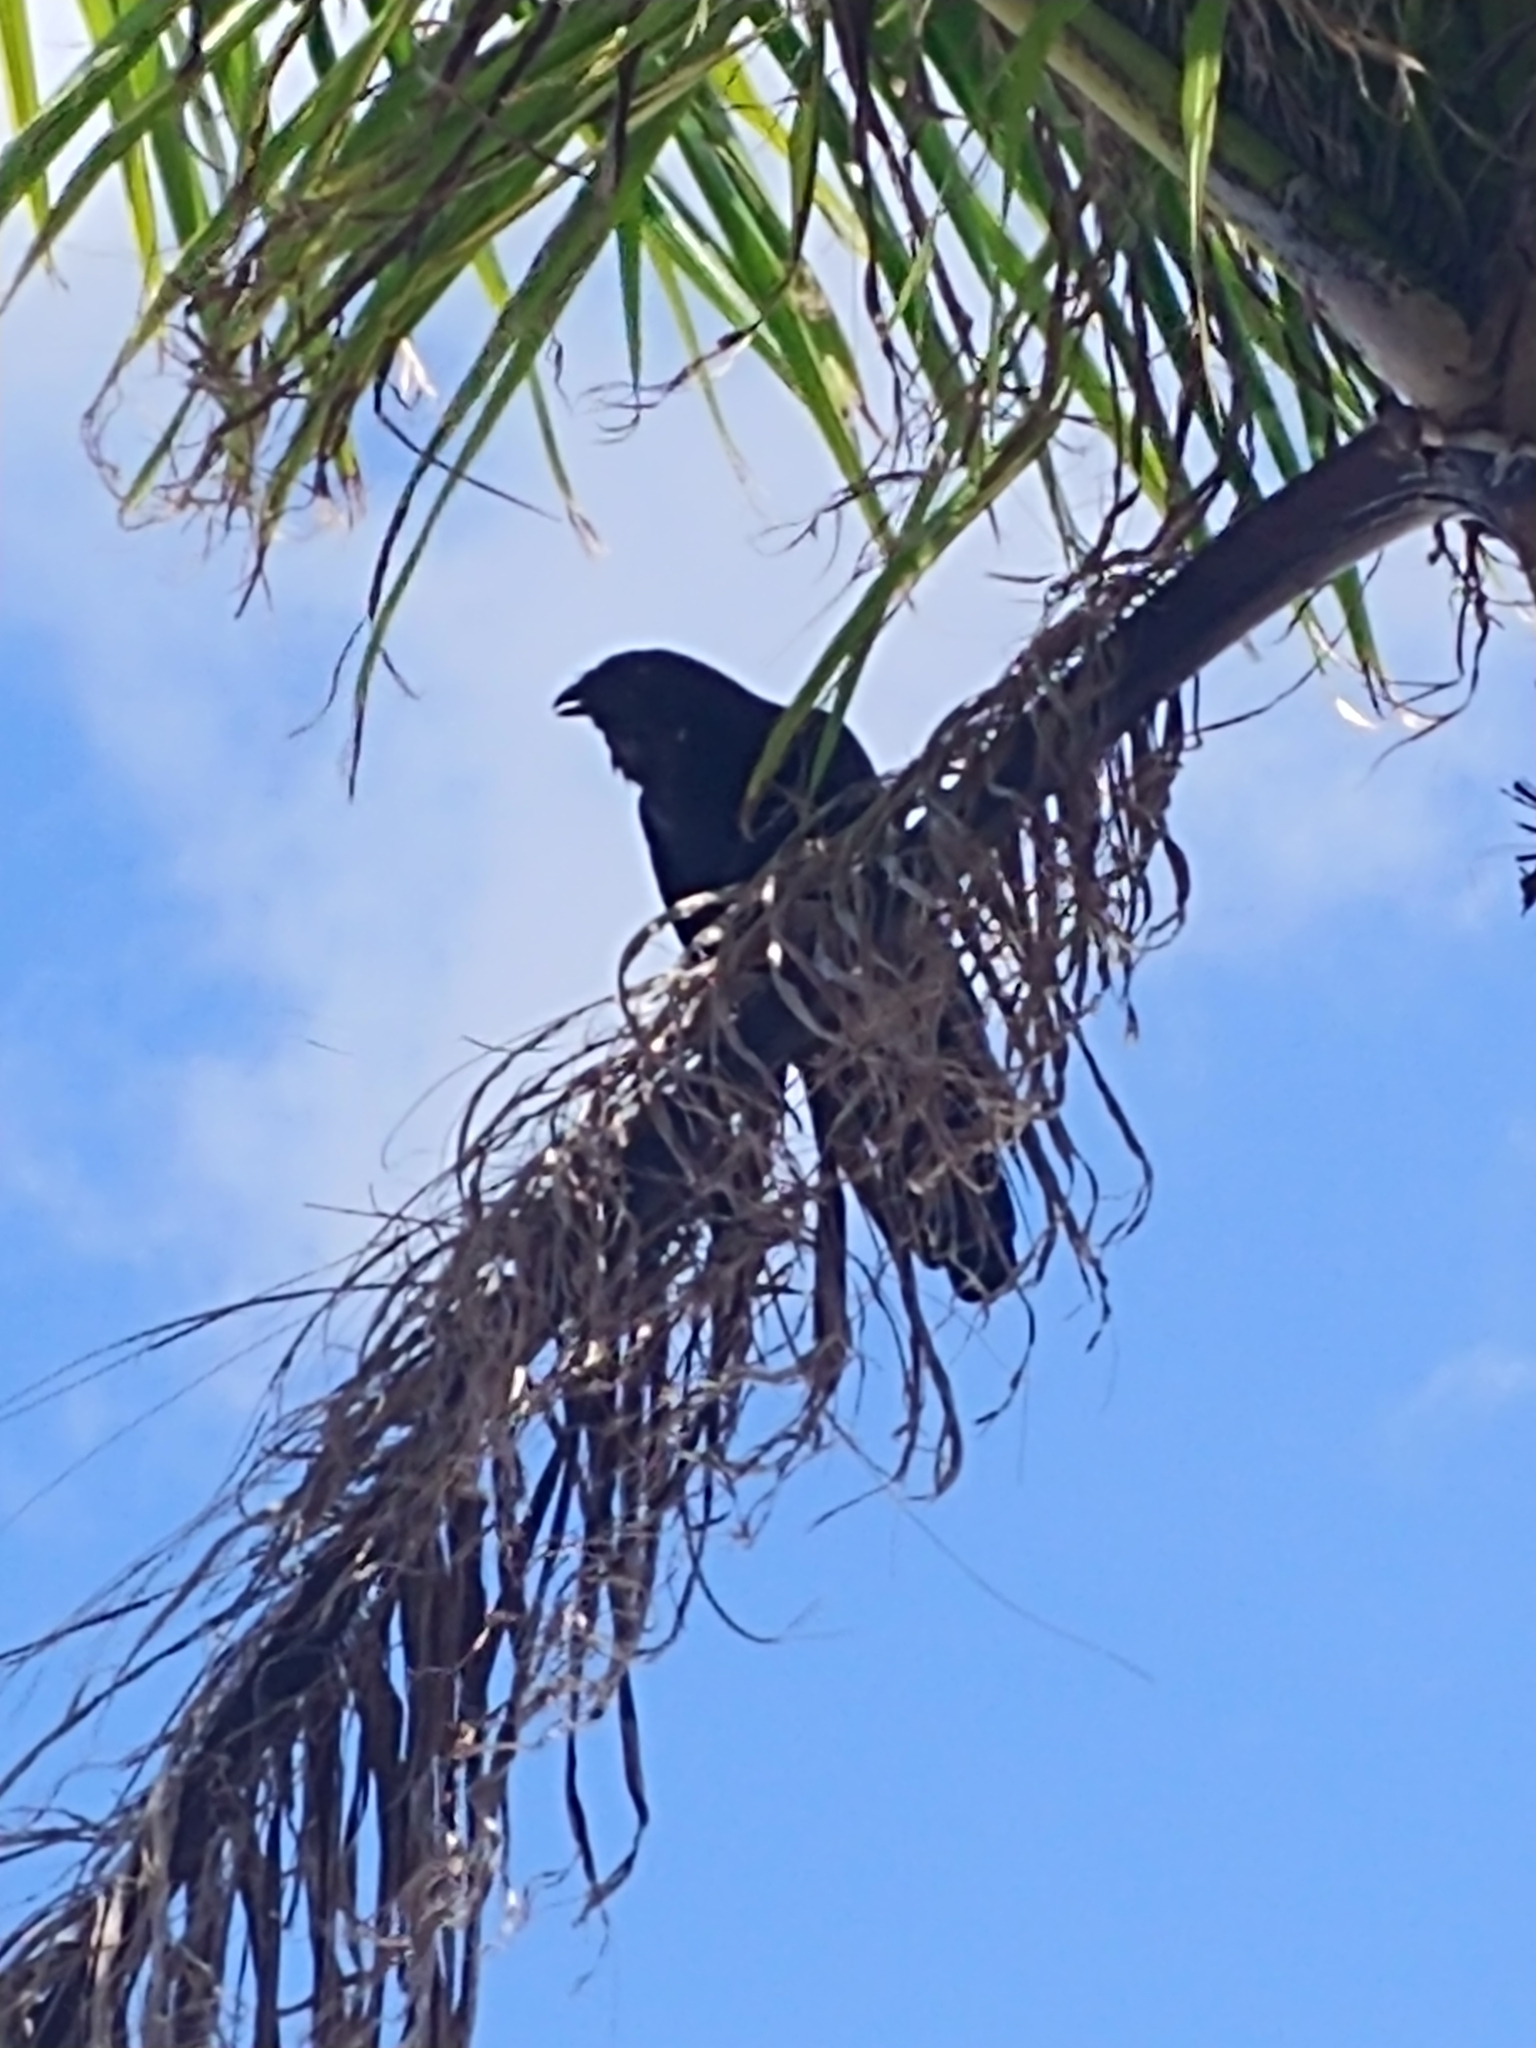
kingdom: Animalia
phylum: Chordata
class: Aves
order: Passeriformes
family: Corvidae
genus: Corvus
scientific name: Corvus ossifragus
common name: Fish crow
